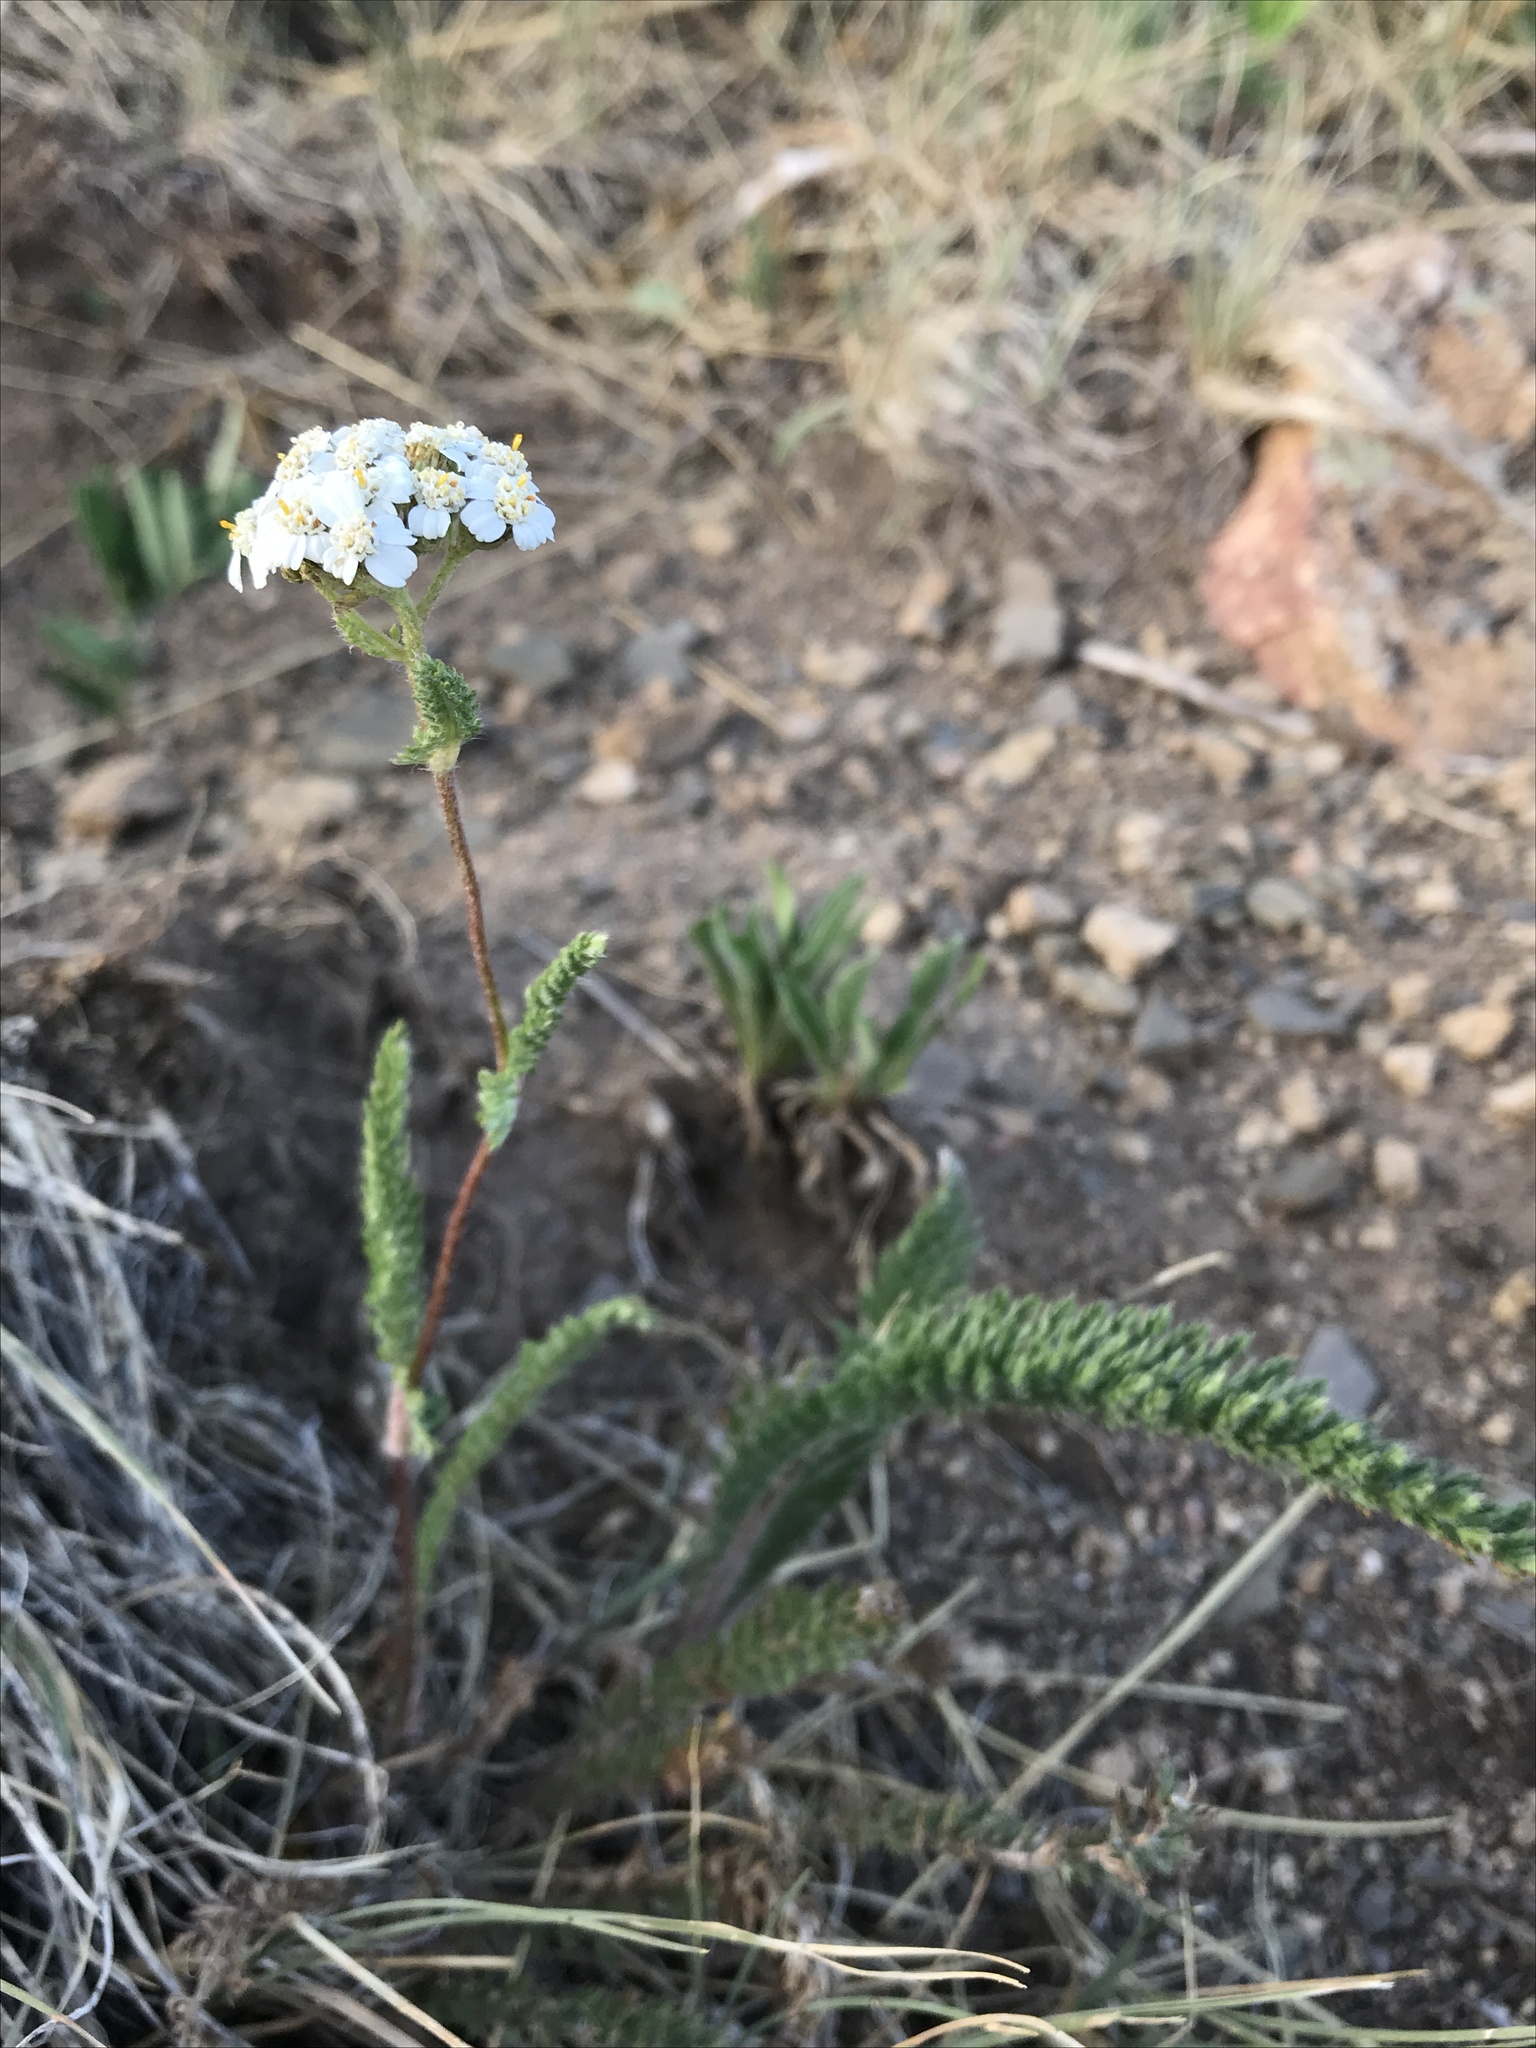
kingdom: Plantae
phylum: Tracheophyta
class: Magnoliopsida
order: Asterales
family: Asteraceae
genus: Achillea
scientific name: Achillea millefolium
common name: Yarrow
